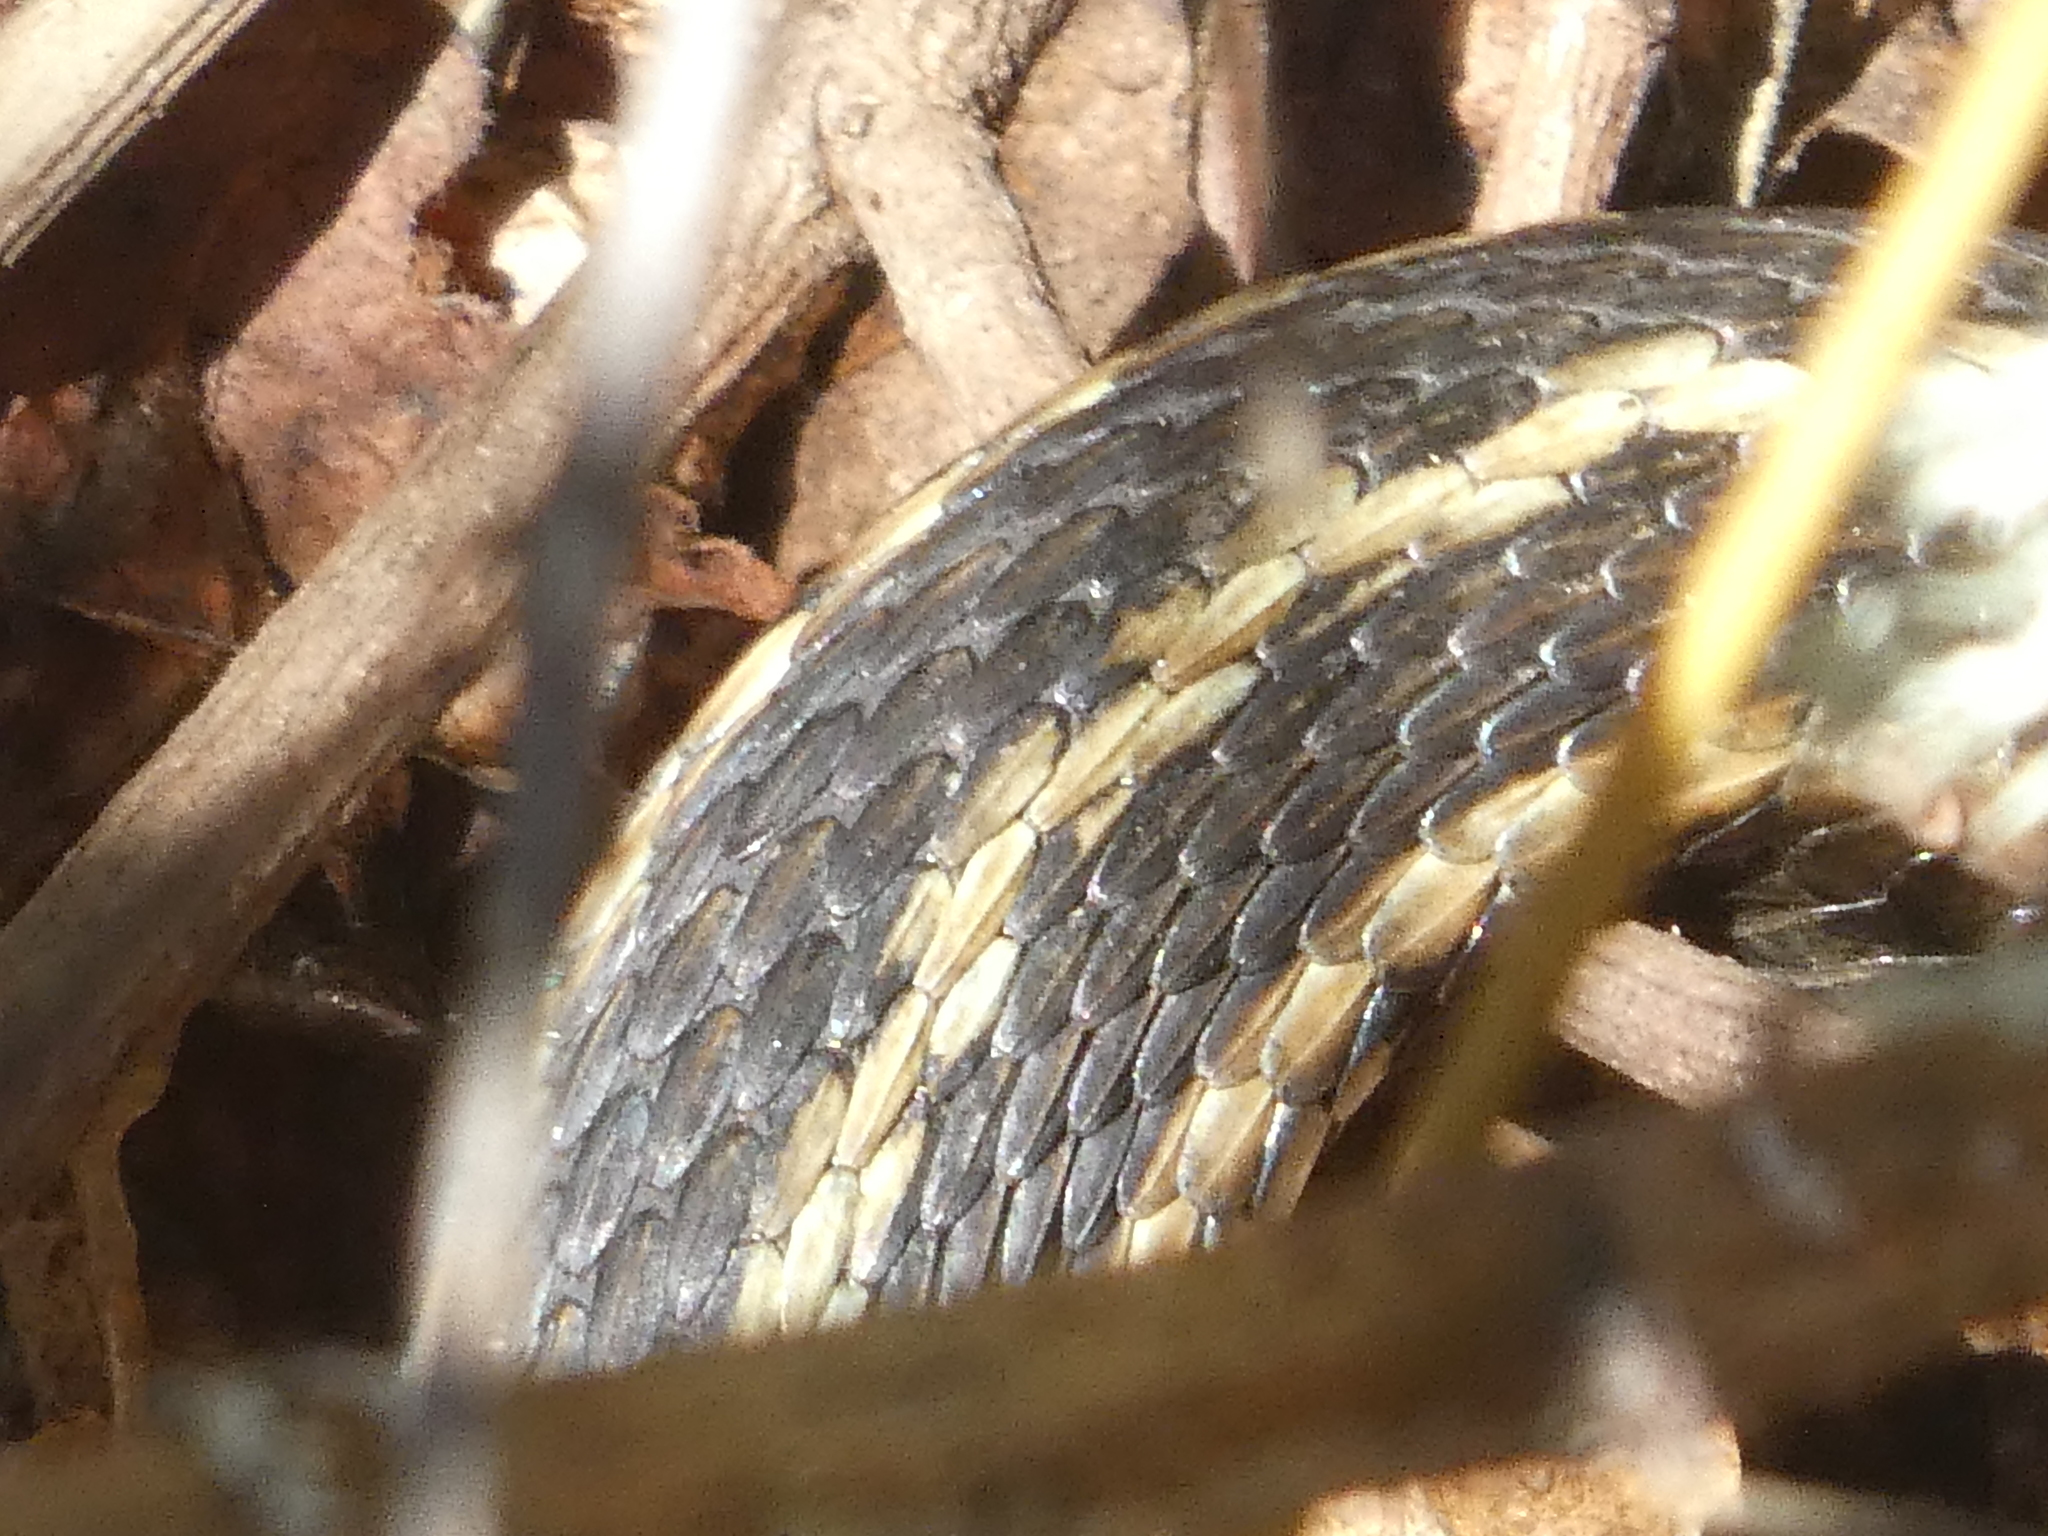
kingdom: Animalia
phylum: Chordata
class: Squamata
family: Colubridae
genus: Thamnophis
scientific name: Thamnophis ordinoides
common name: Northwestern garter snake
